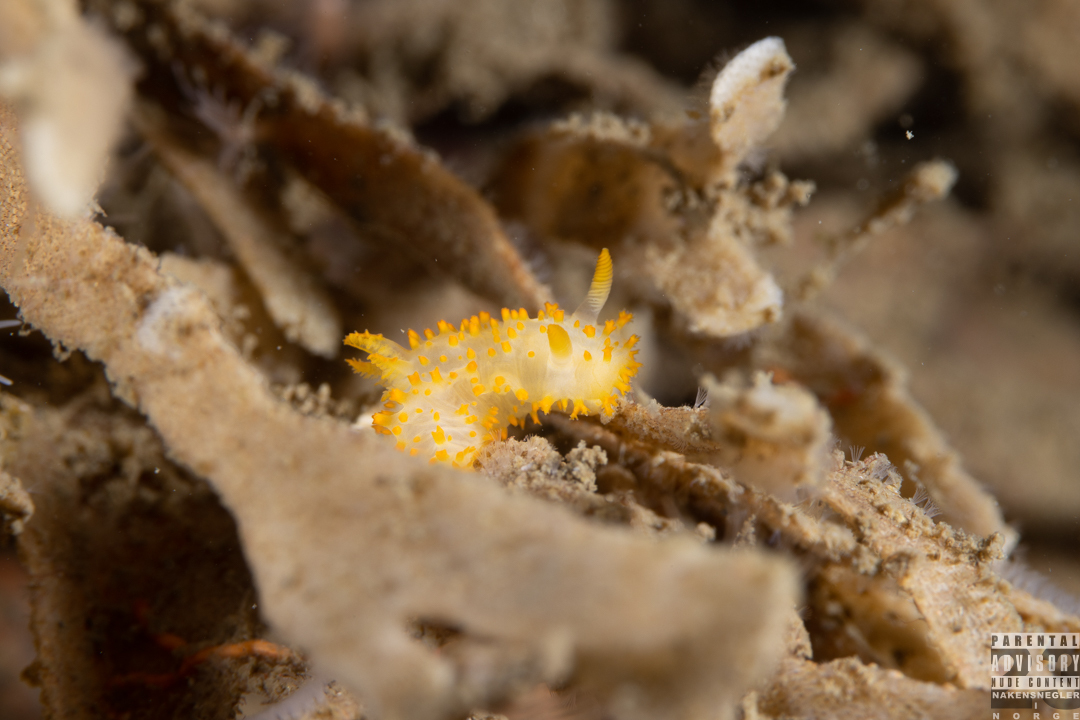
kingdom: Animalia
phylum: Mollusca
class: Gastropoda
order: Nudibranchia
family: Polyceridae
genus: Crimora
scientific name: Crimora papillata
